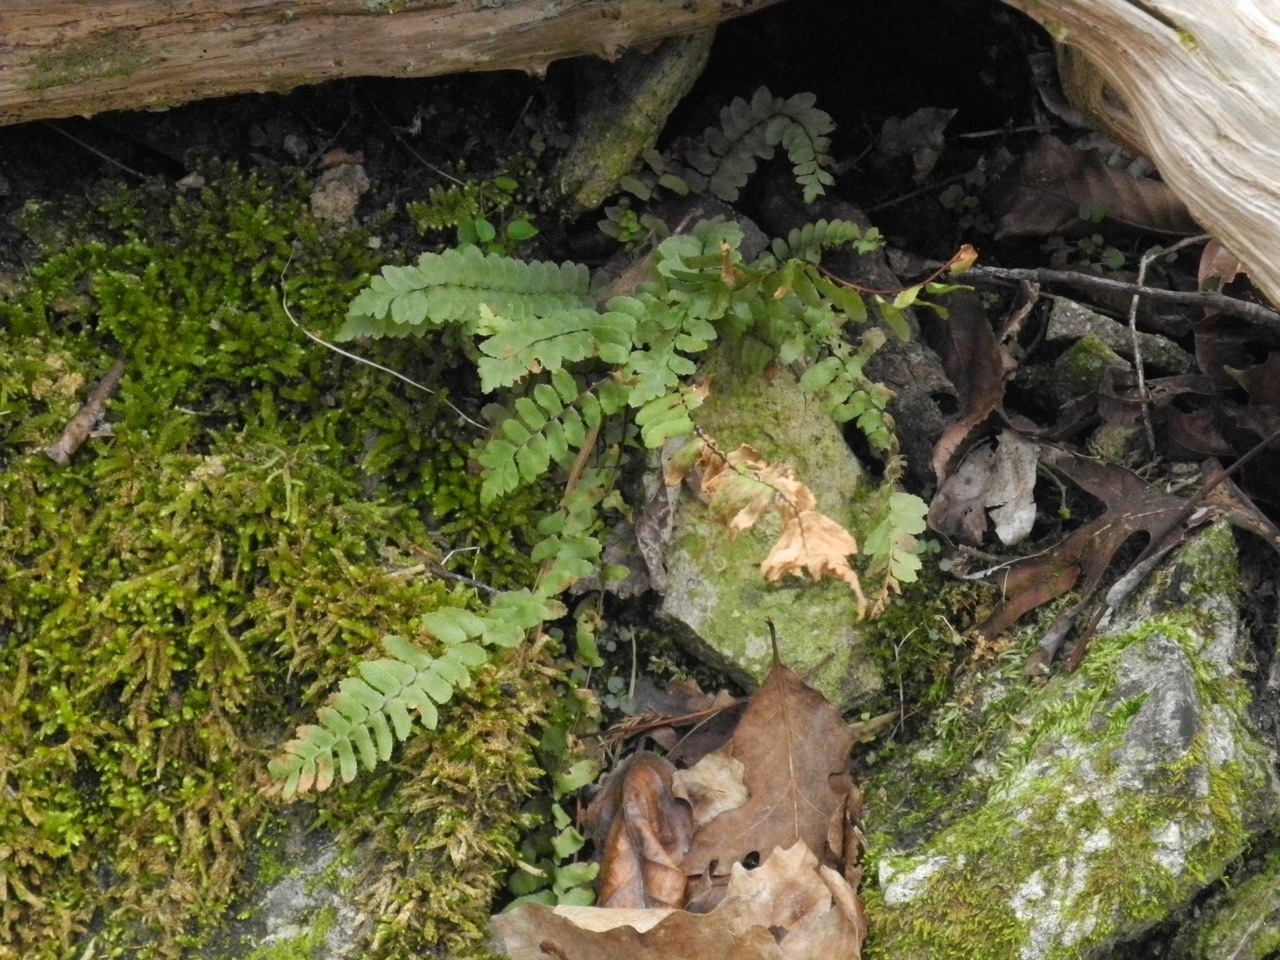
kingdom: Plantae
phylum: Tracheophyta
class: Polypodiopsida
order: Polypodiales
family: Aspleniaceae
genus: Asplenium
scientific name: Asplenium platyneuron
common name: Ebony spleenwort
